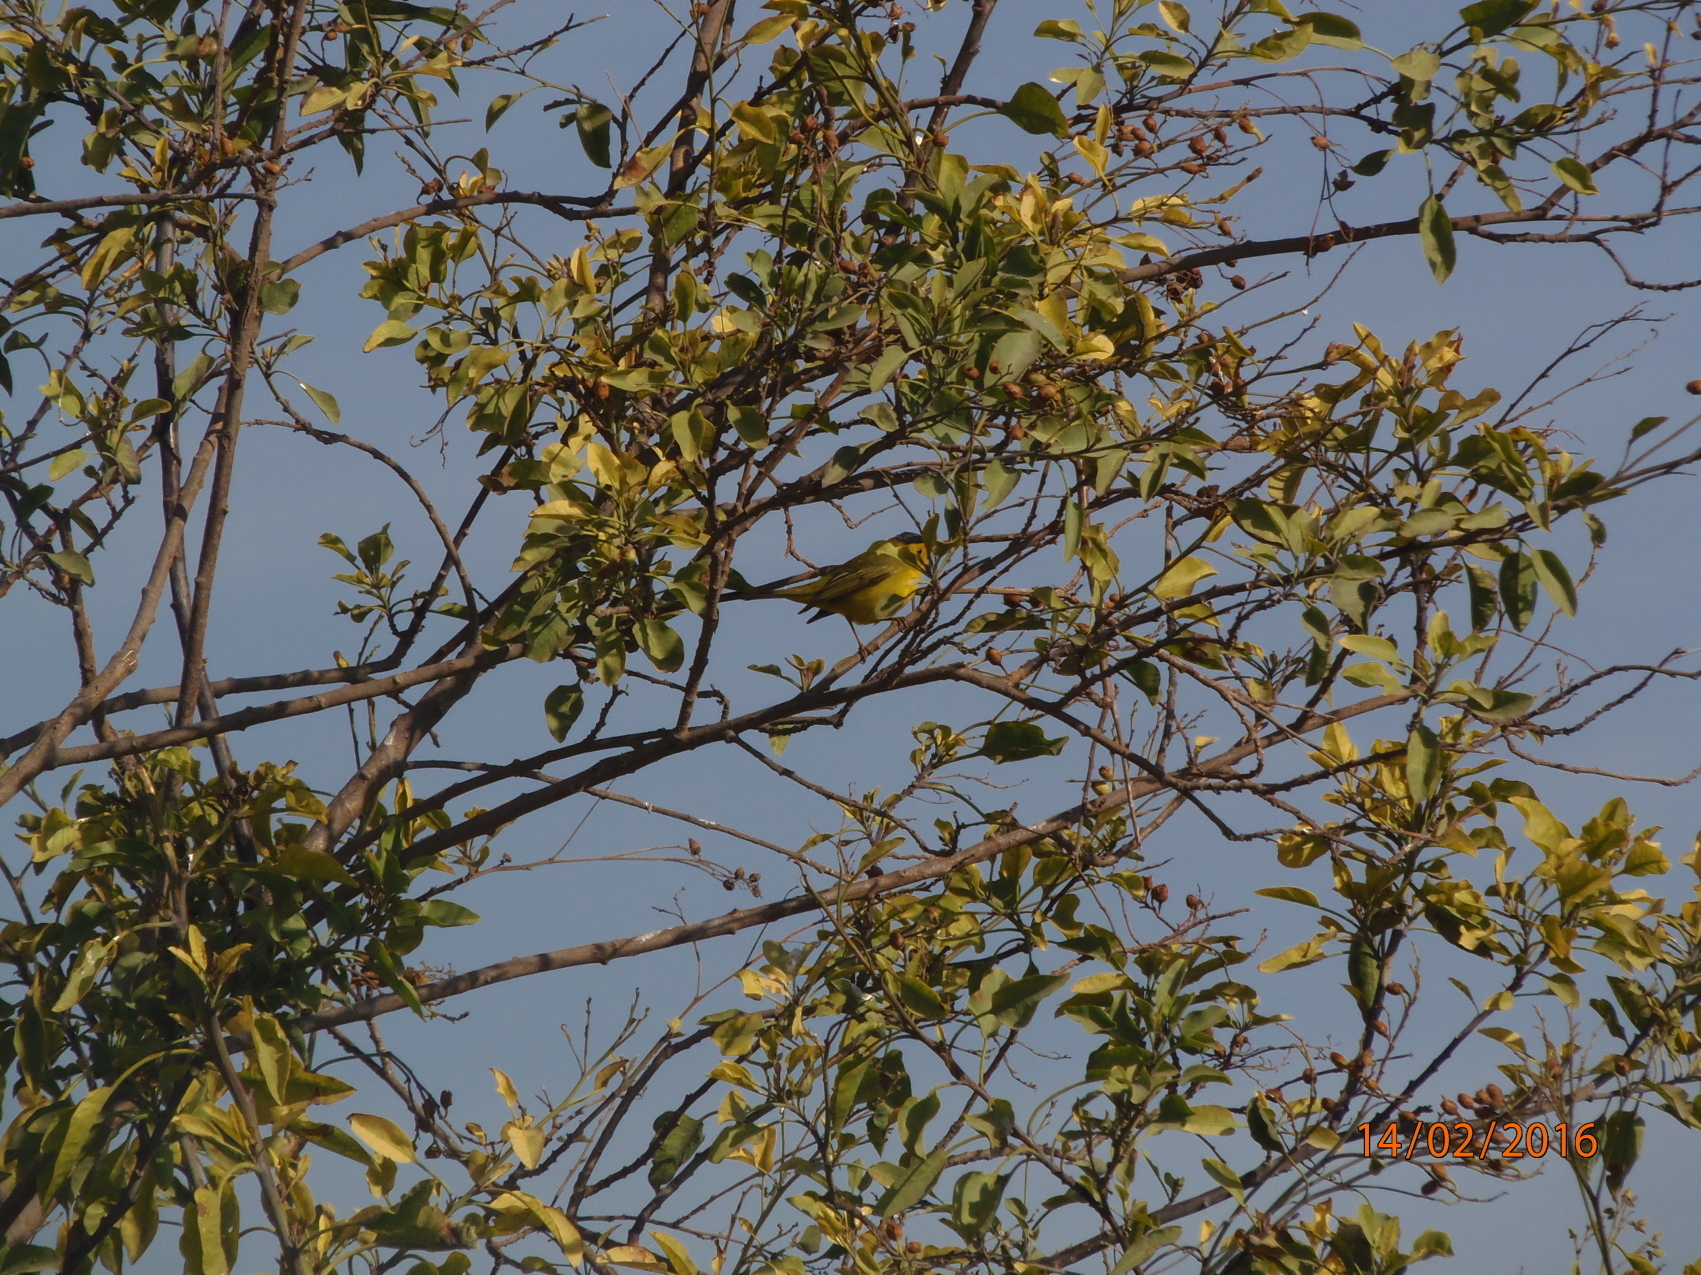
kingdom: Animalia
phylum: Chordata
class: Aves
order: Passeriformes
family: Parulidae
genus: Cardellina
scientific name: Cardellina pusilla
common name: Wilson's warbler
